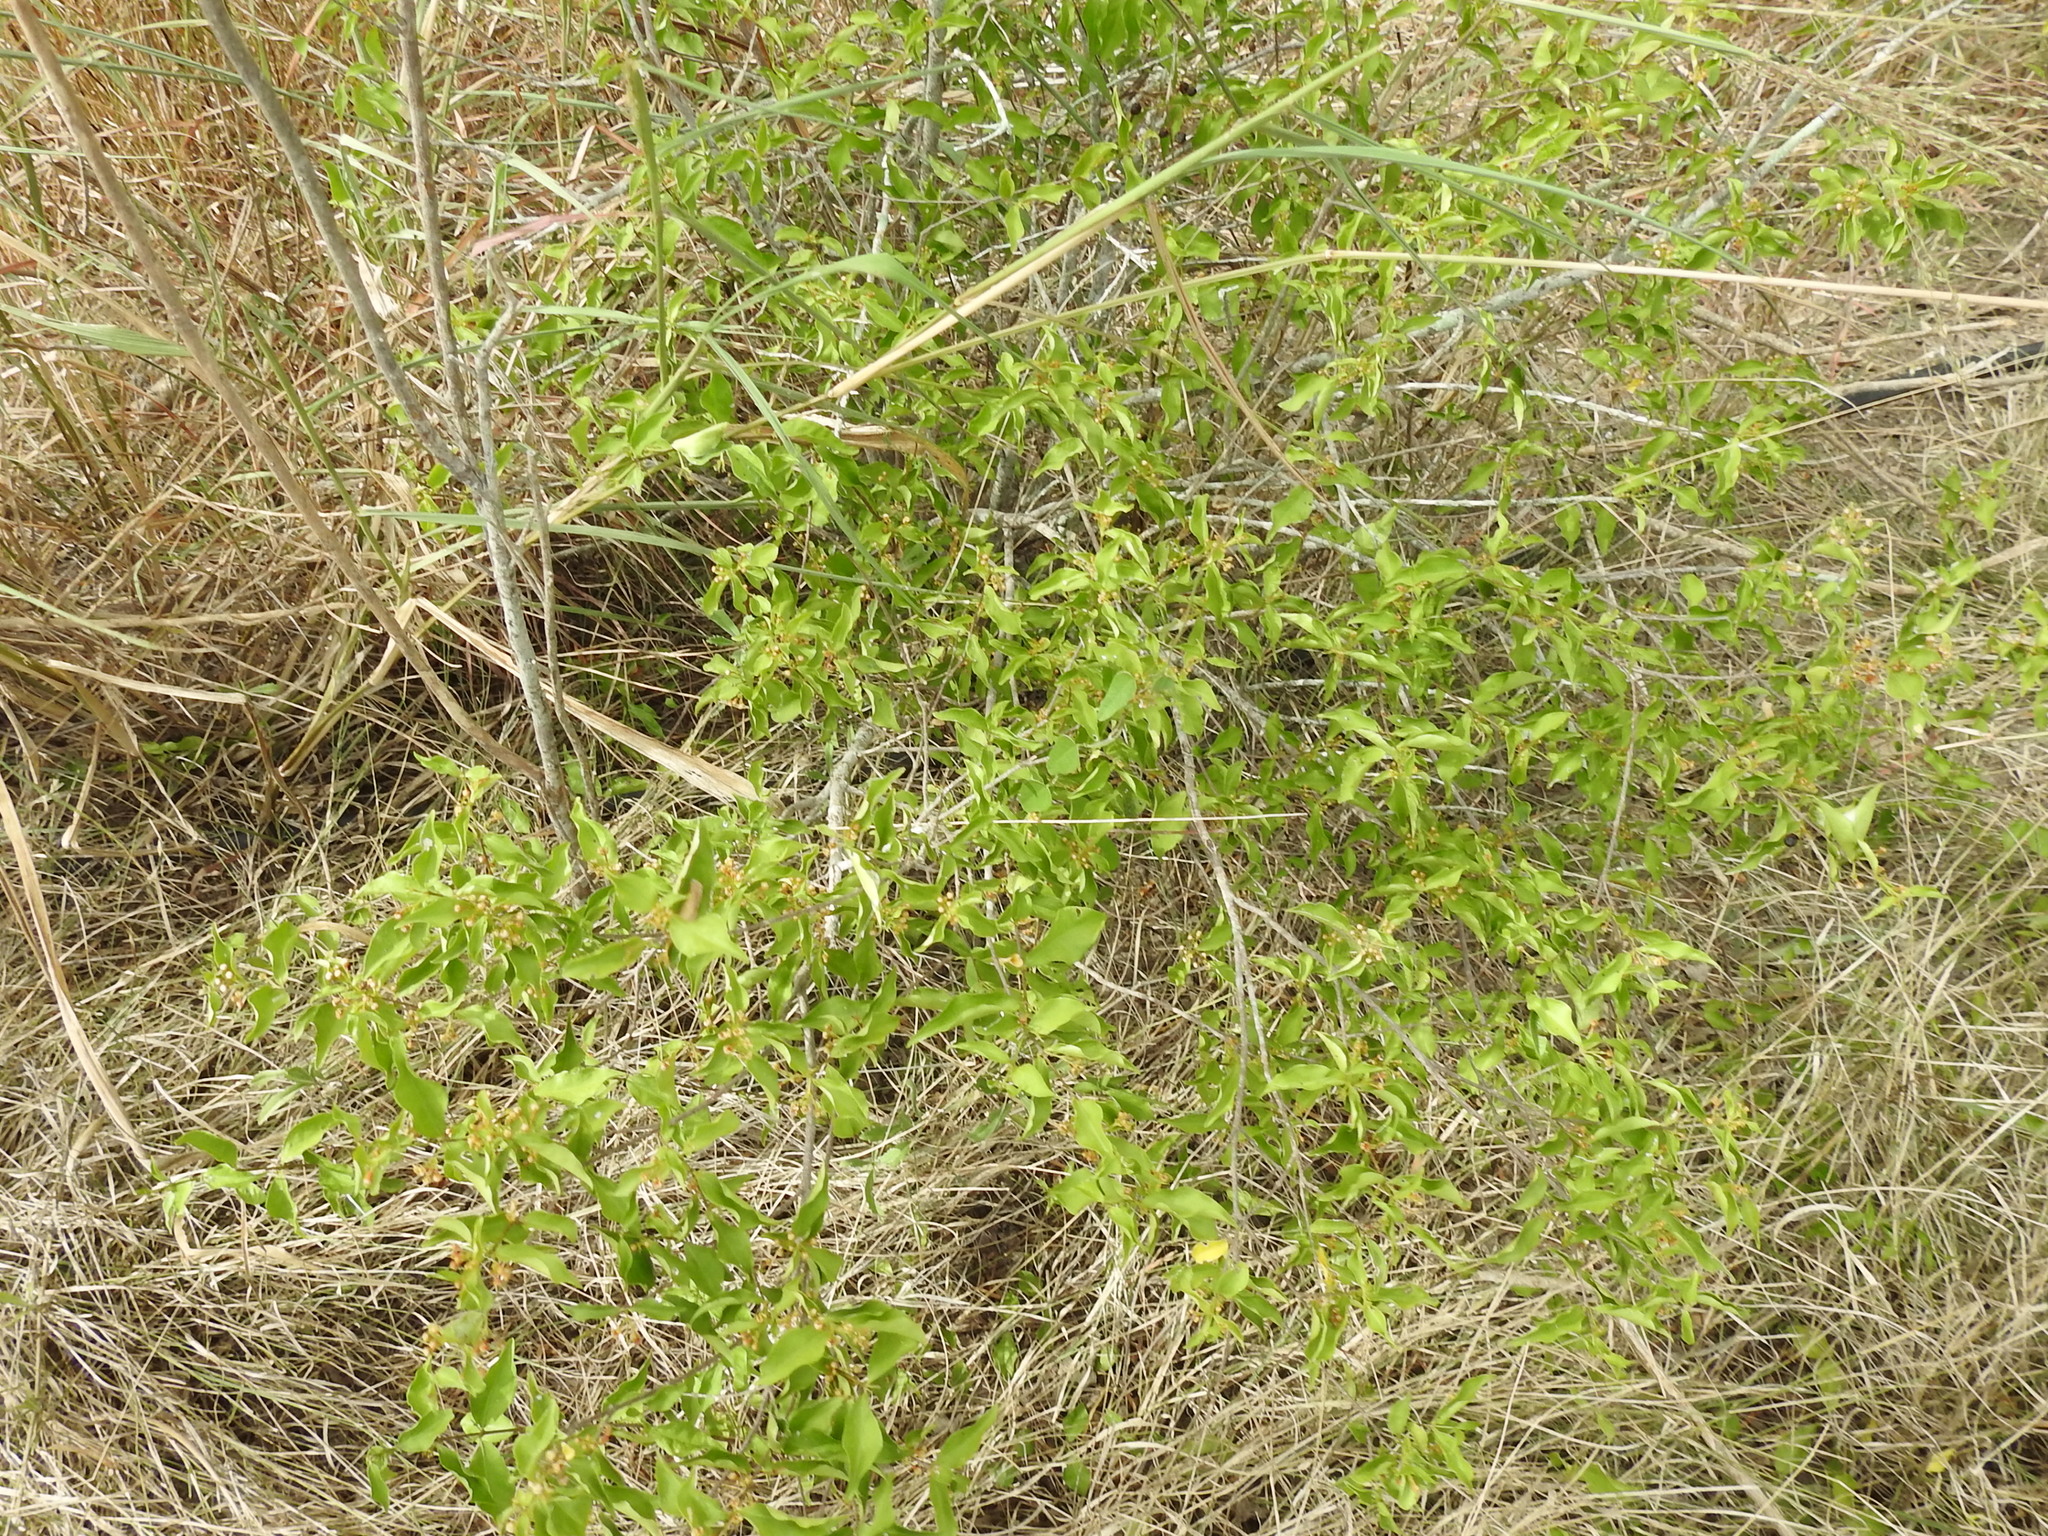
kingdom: Plantae
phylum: Tracheophyta
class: Magnoliopsida
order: Malpighiales
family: Malpighiaceae
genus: Malpighia
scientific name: Malpighia glabra
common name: Barbados cherry
